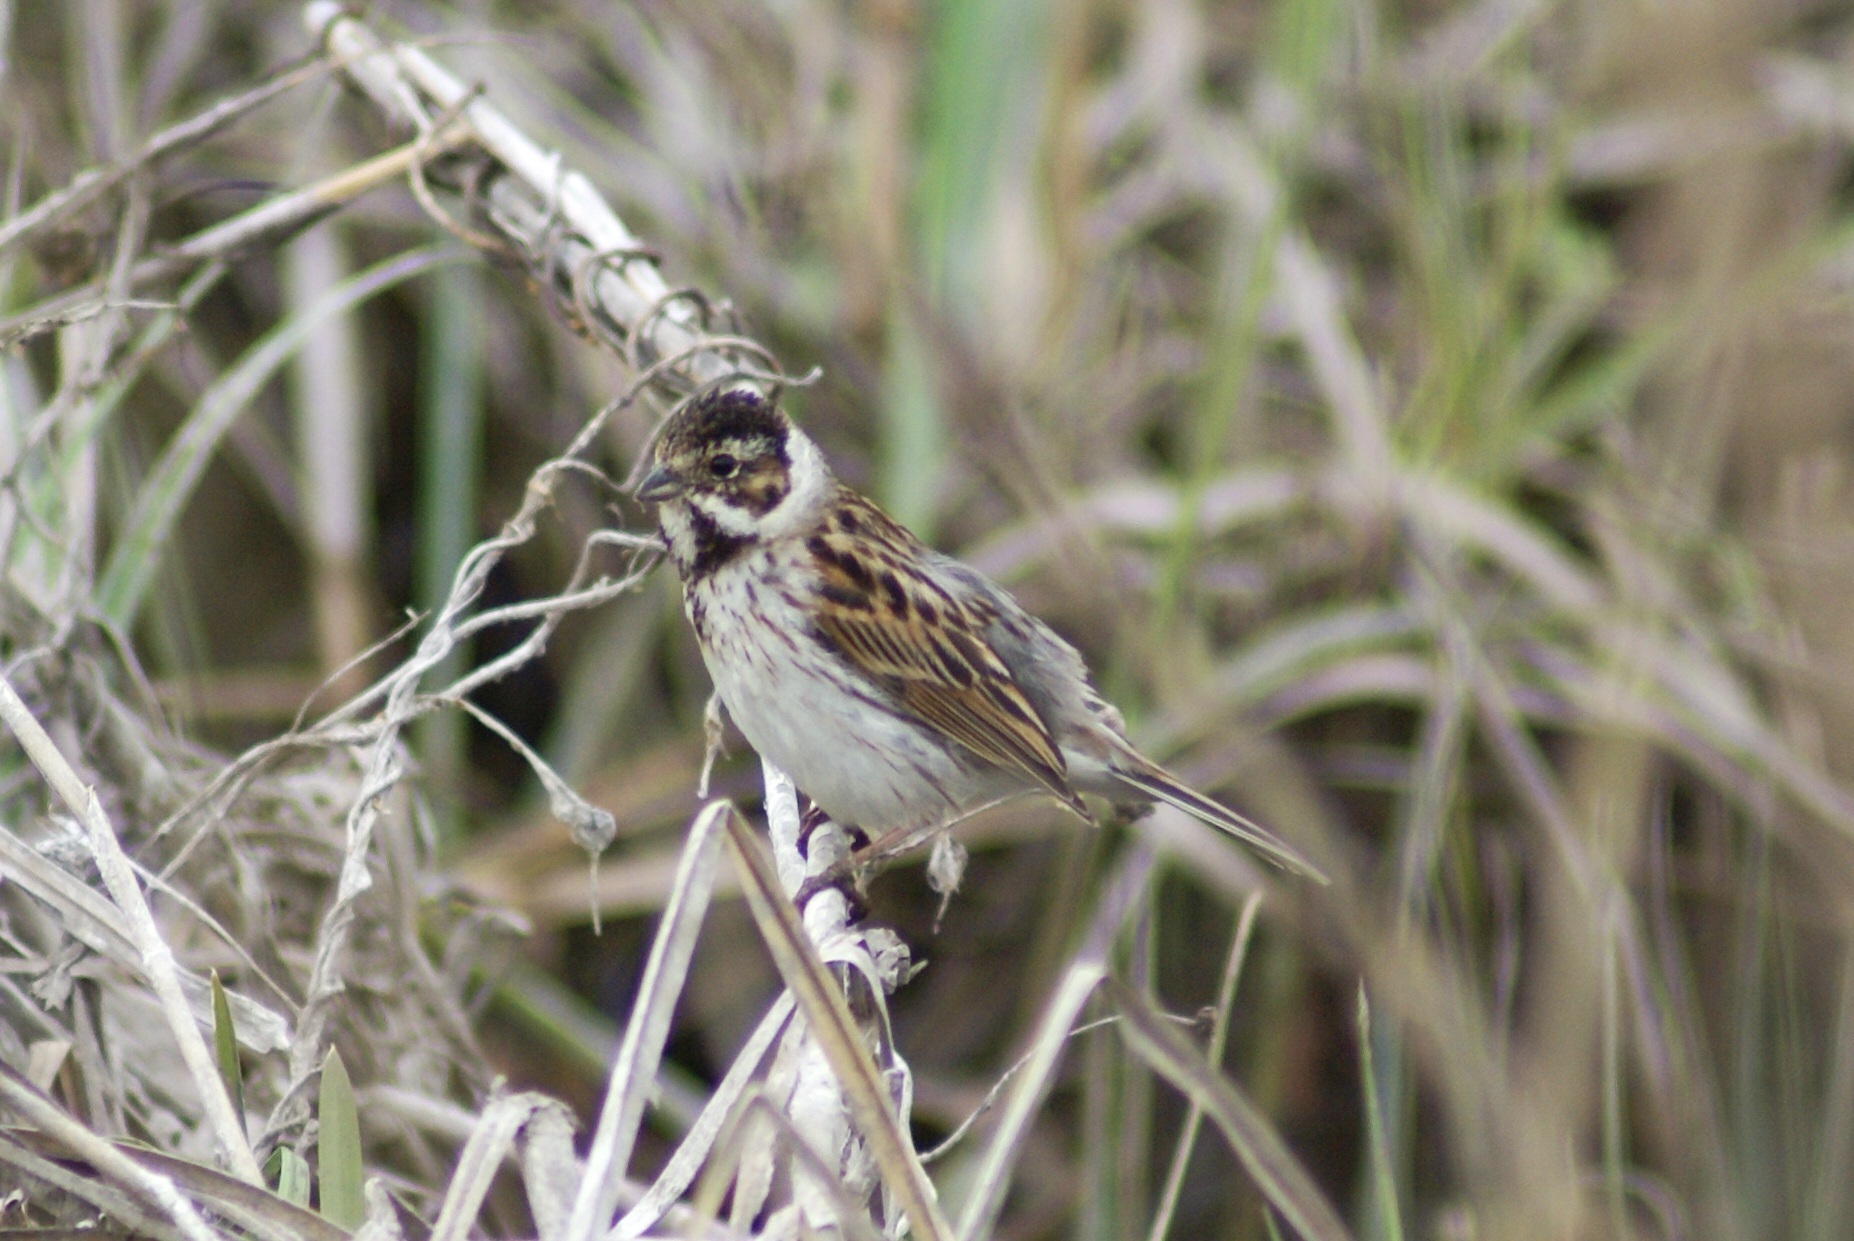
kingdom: Animalia
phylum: Chordata
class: Aves
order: Passeriformes
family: Emberizidae
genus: Emberiza
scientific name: Emberiza schoeniclus
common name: Reed bunting
